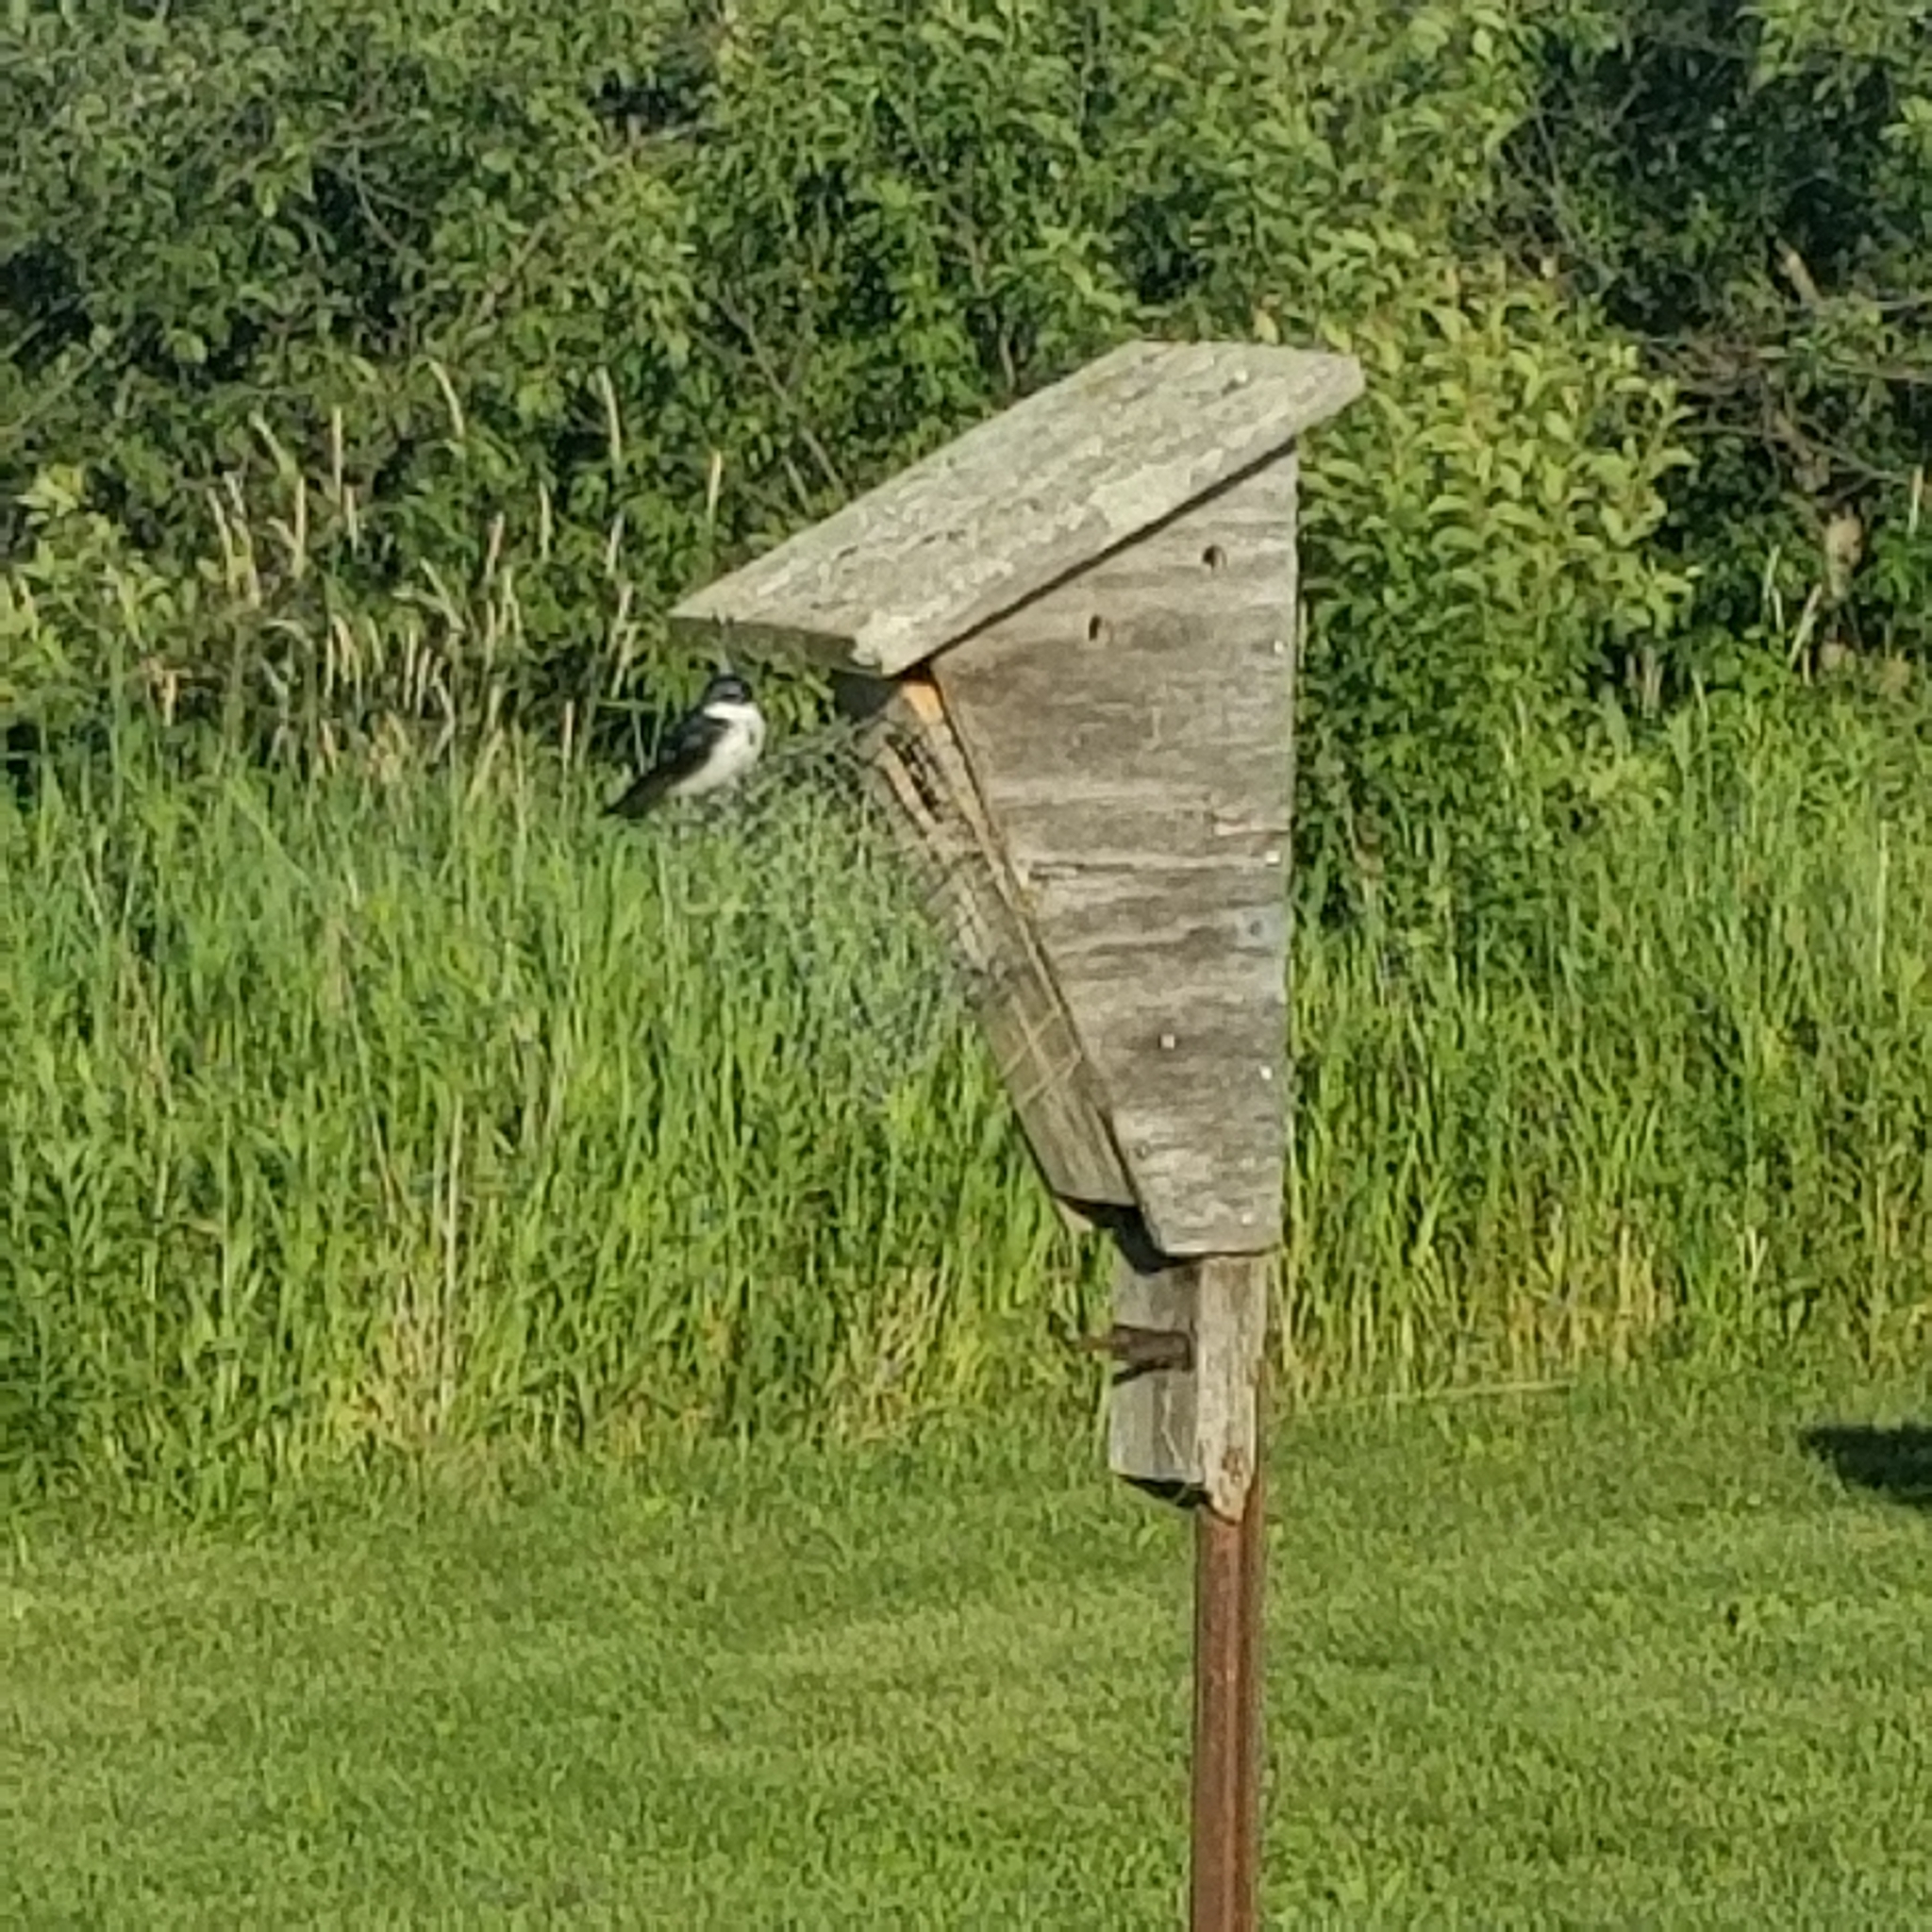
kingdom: Animalia
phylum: Chordata
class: Aves
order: Passeriformes
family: Hirundinidae
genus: Tachycineta
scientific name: Tachycineta bicolor
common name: Tree swallow
